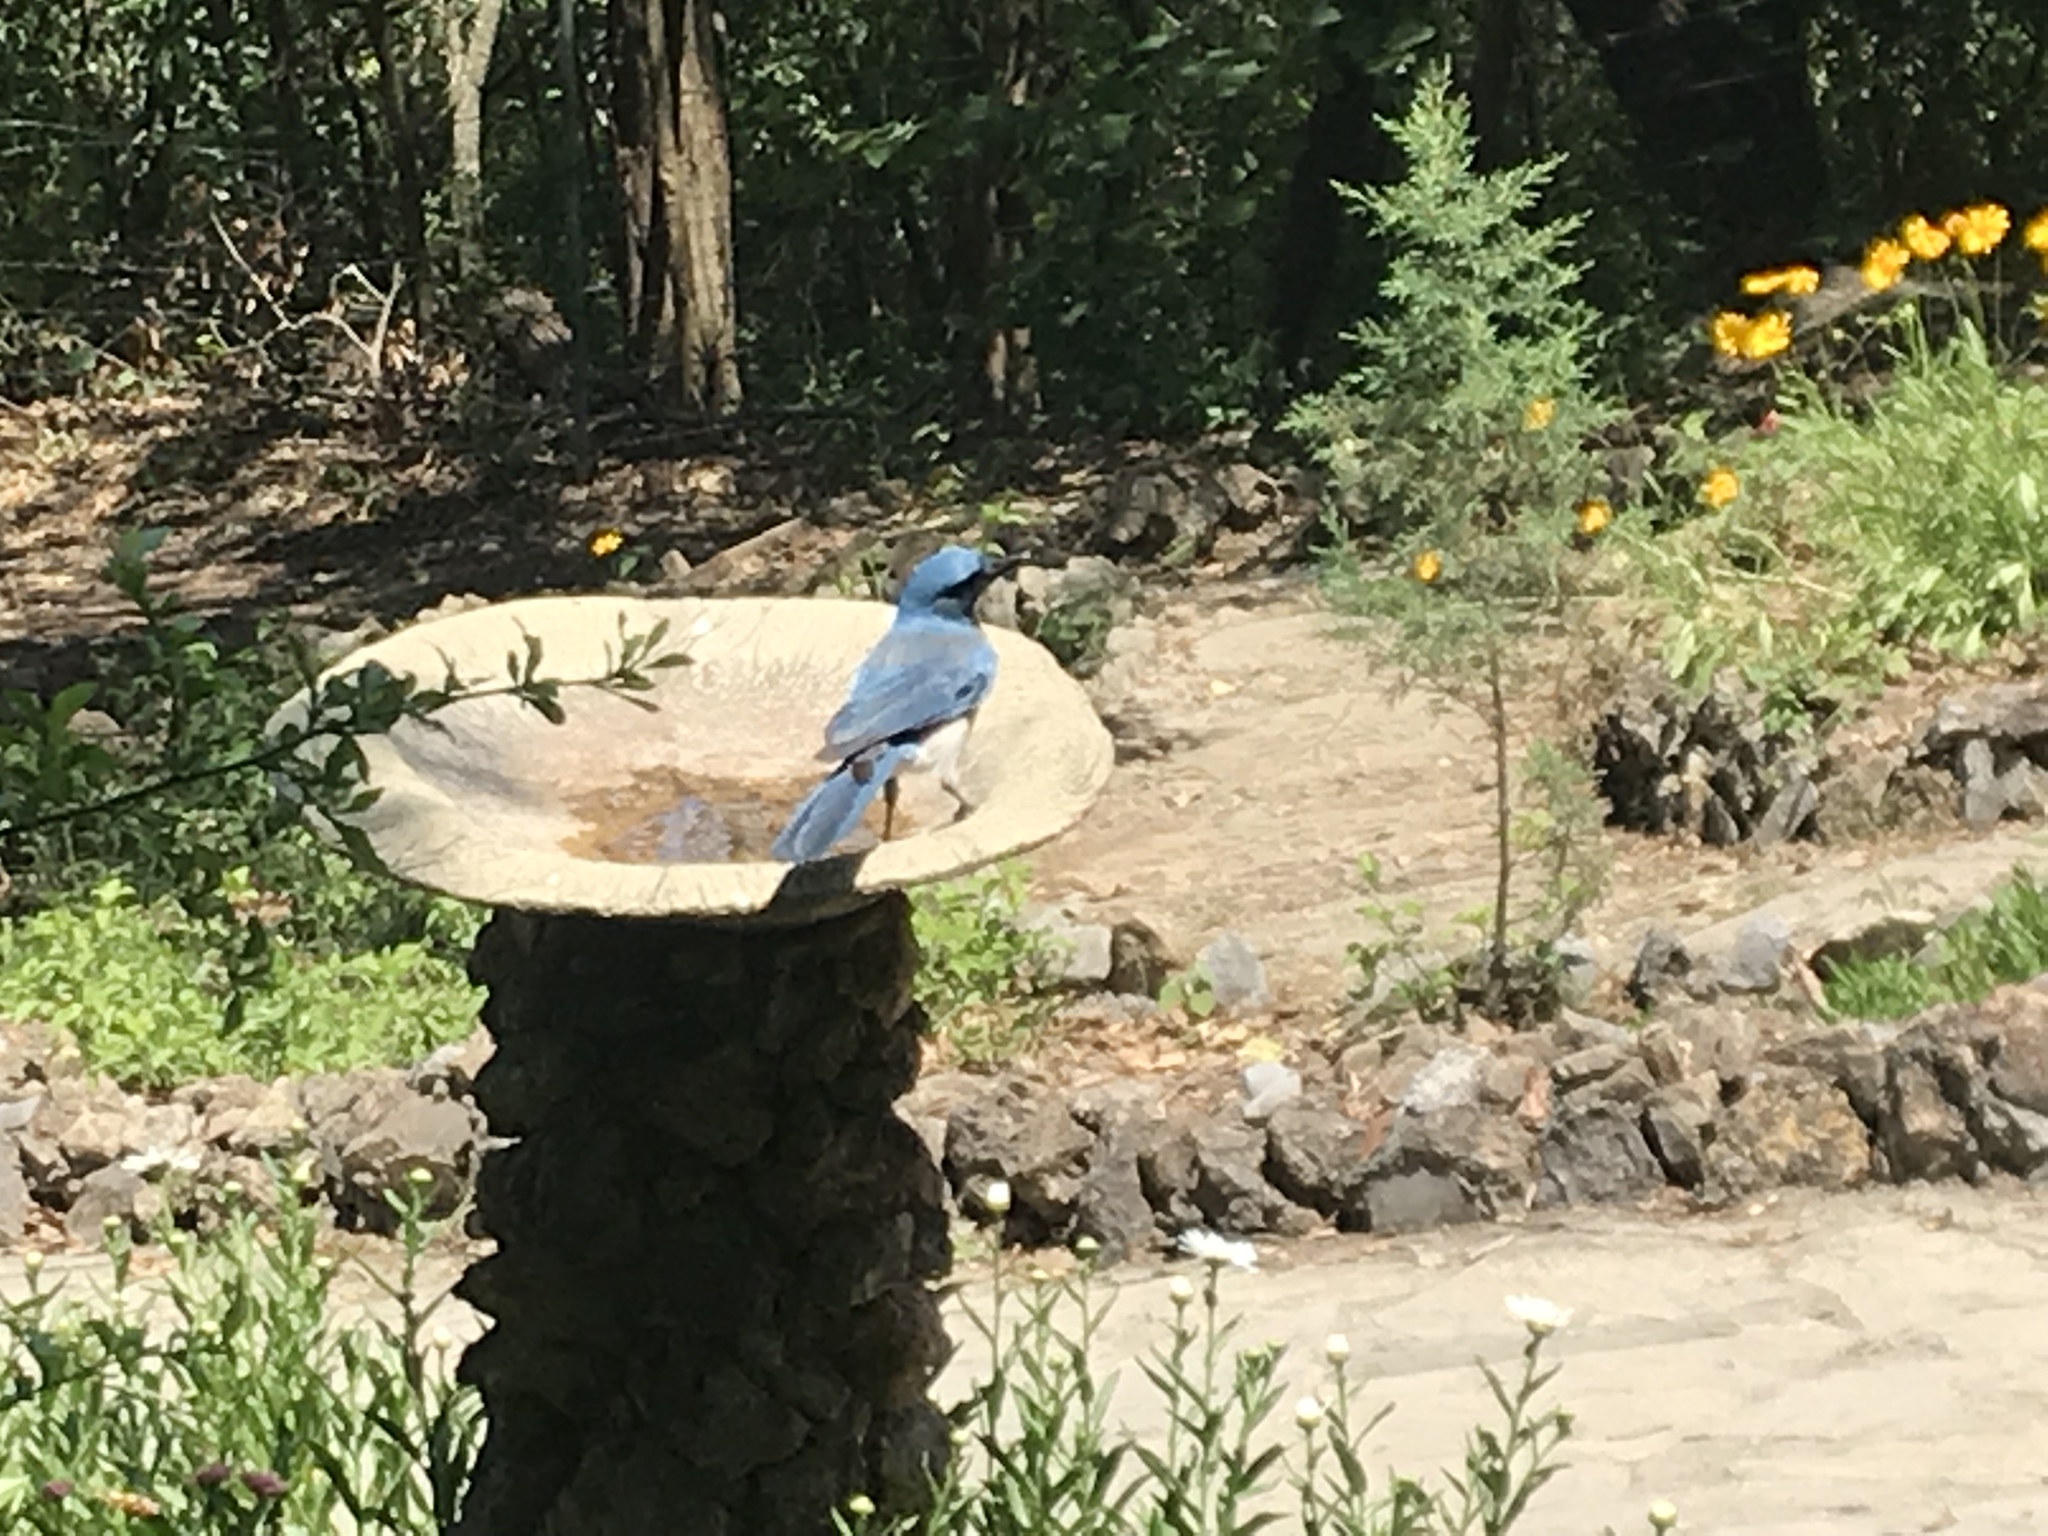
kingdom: Animalia
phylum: Chordata
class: Aves
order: Passeriformes
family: Corvidae
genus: Aphelocoma
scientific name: Aphelocoma wollweberi
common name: Mexican jay
